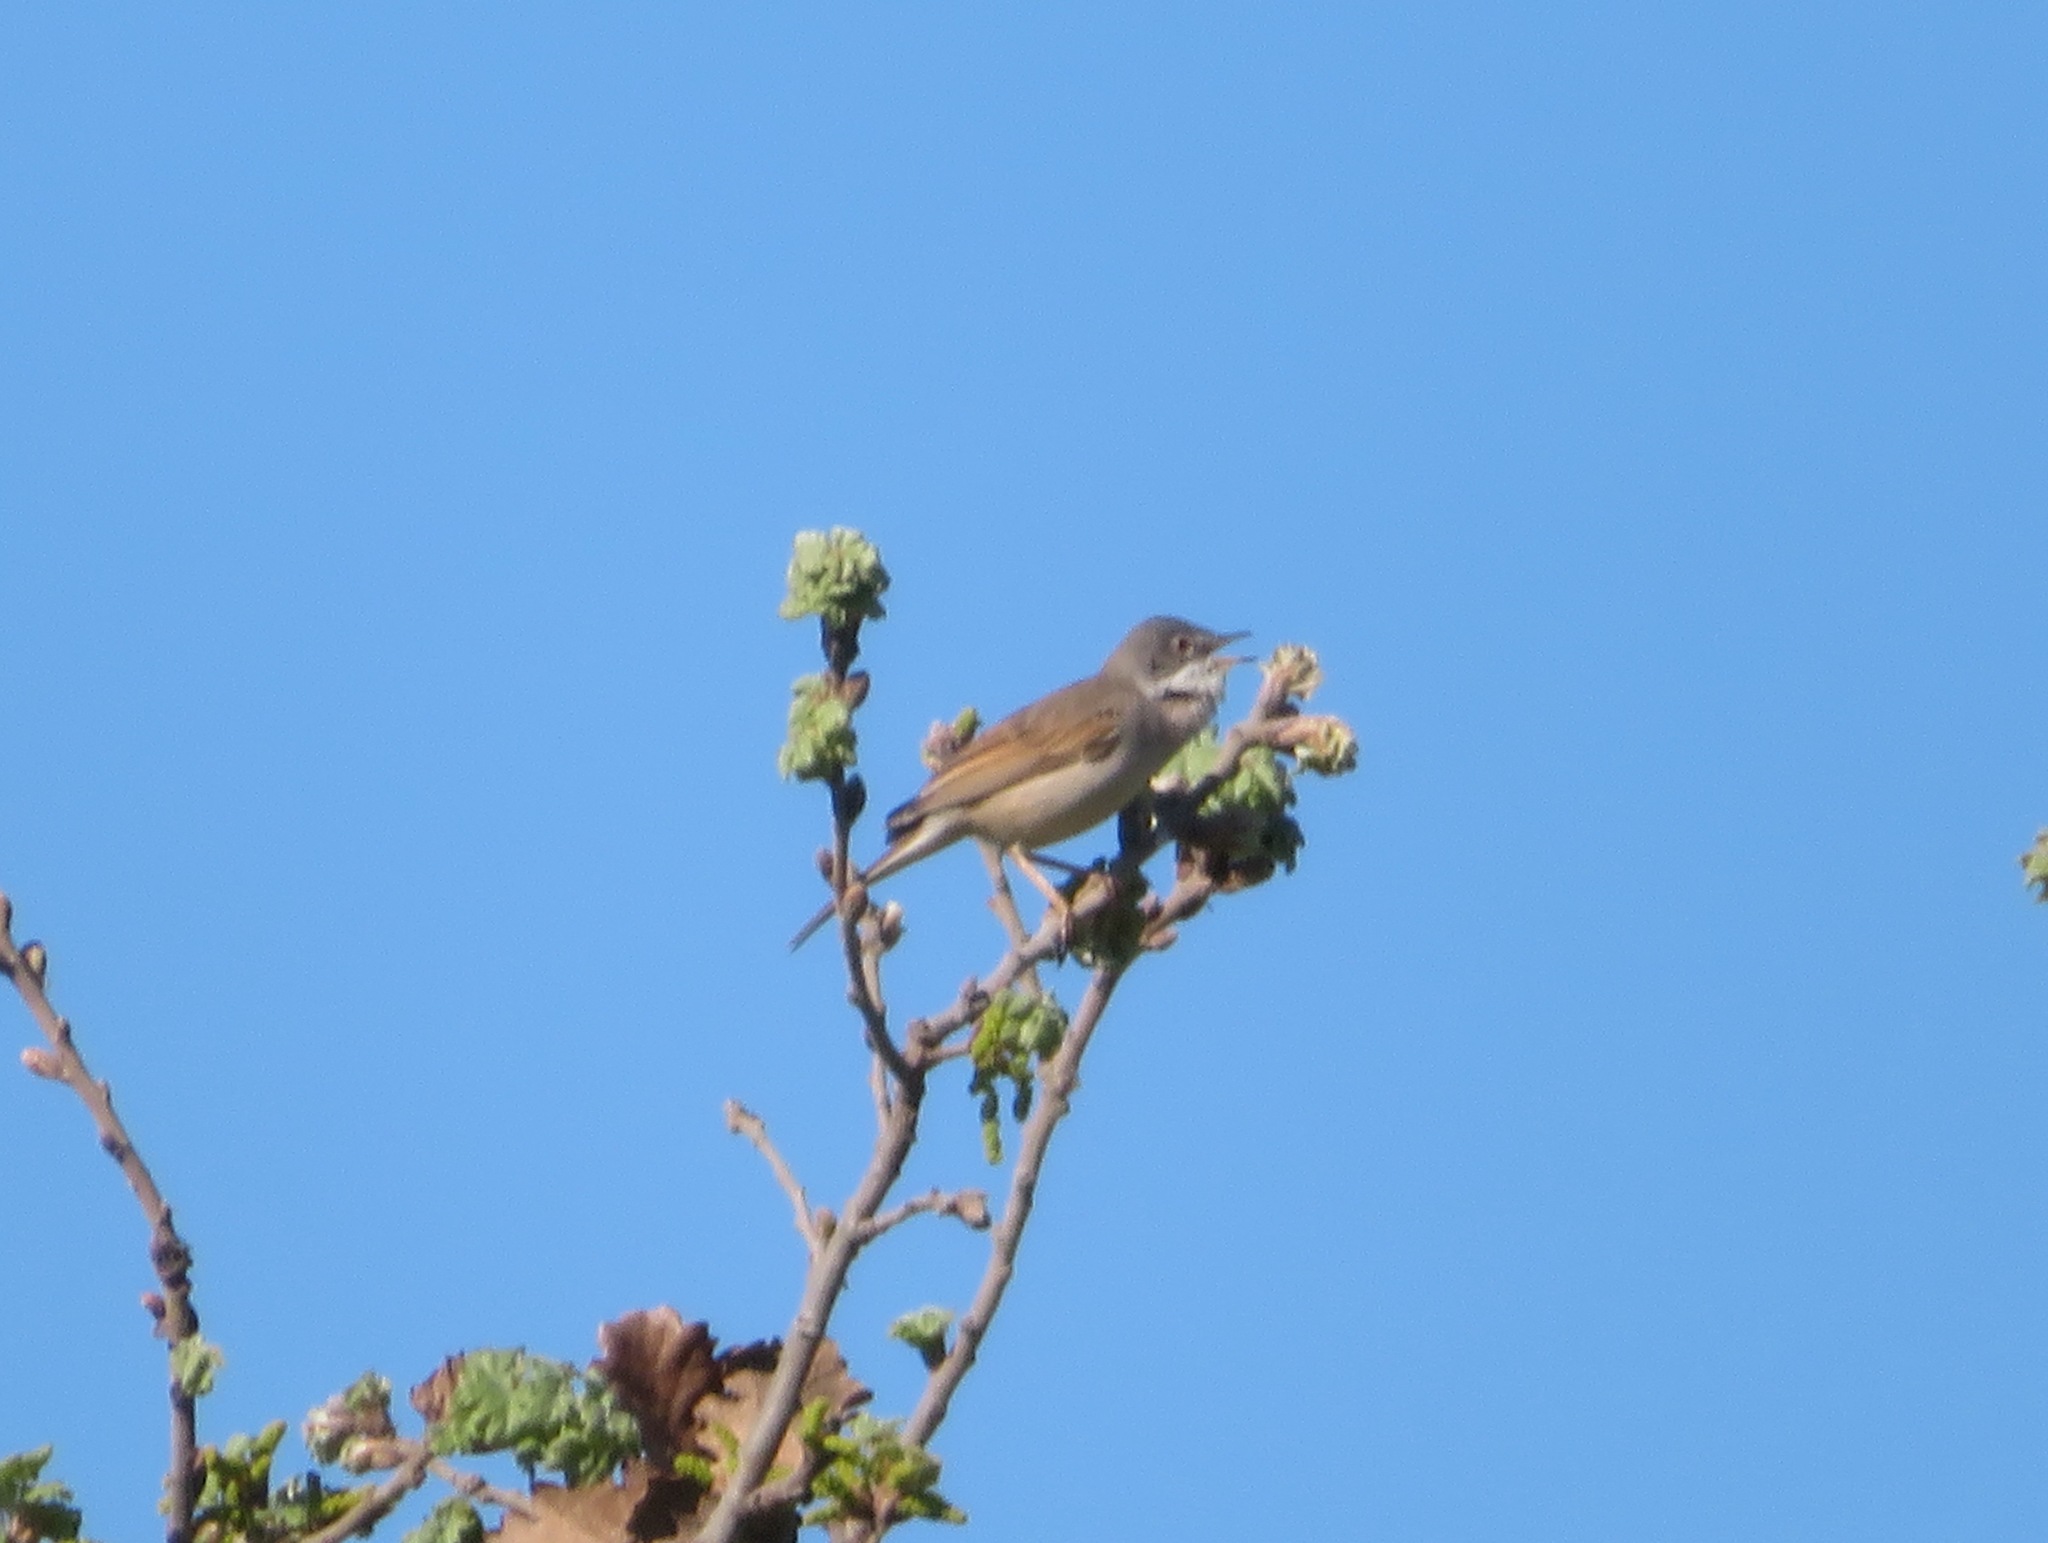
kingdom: Animalia
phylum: Chordata
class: Aves
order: Passeriformes
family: Sylviidae
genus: Sylvia
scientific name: Sylvia communis
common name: Common whitethroat
